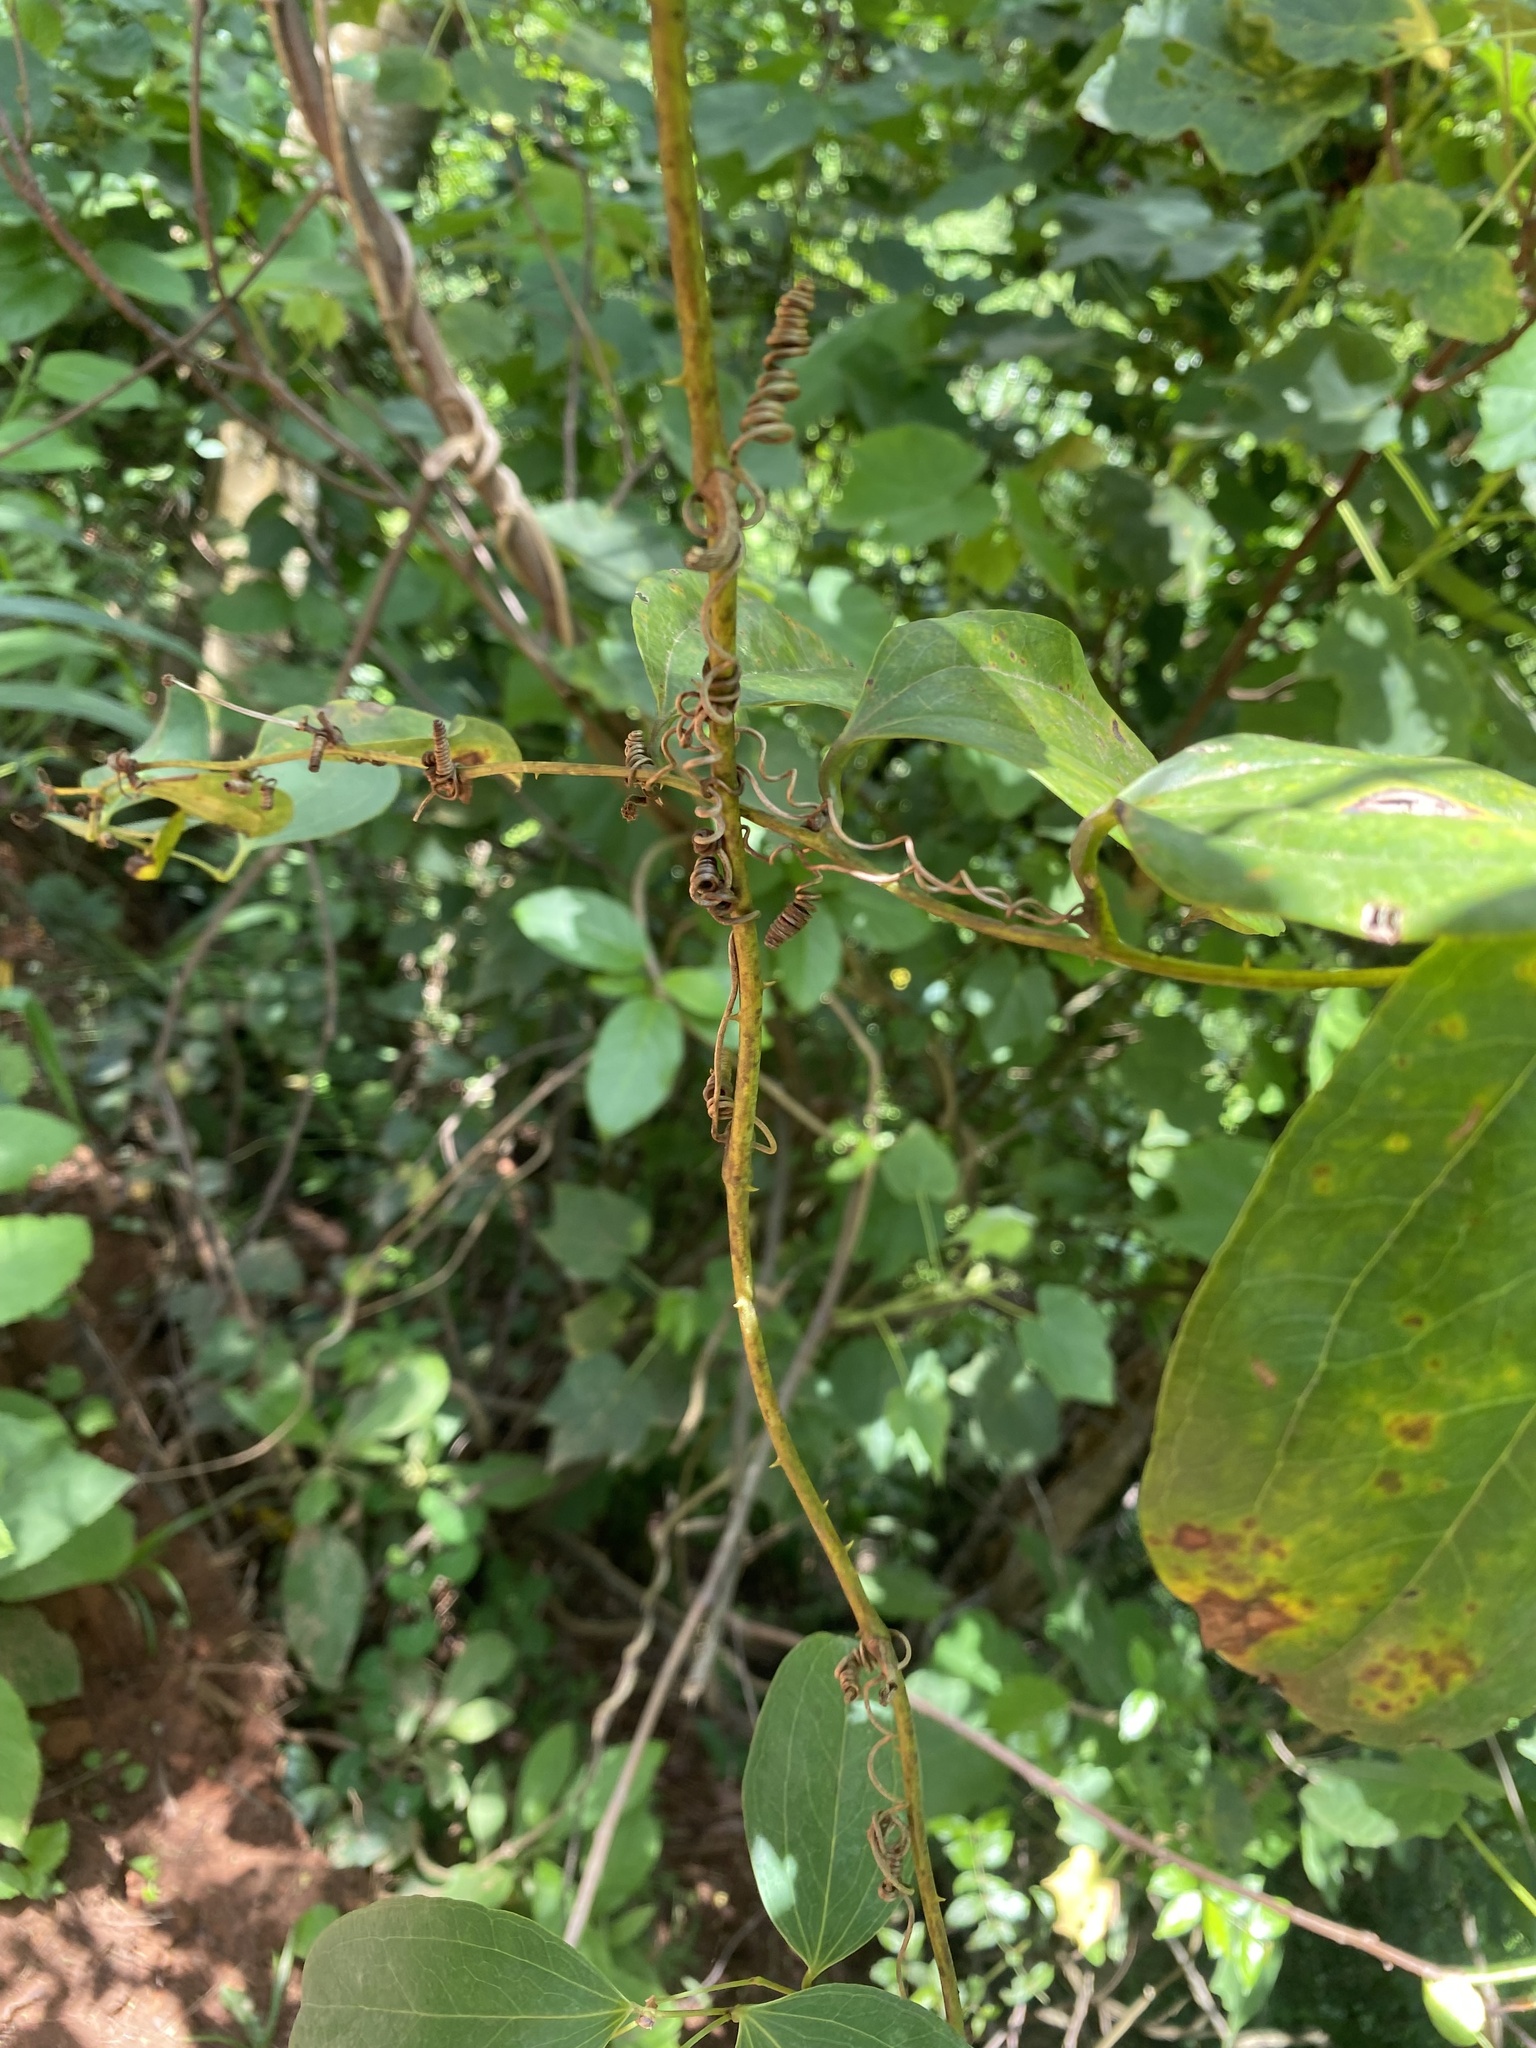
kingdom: Plantae
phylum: Tracheophyta
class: Liliopsida
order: Liliales
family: Smilacaceae
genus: Smilax
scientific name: Smilax anceps
